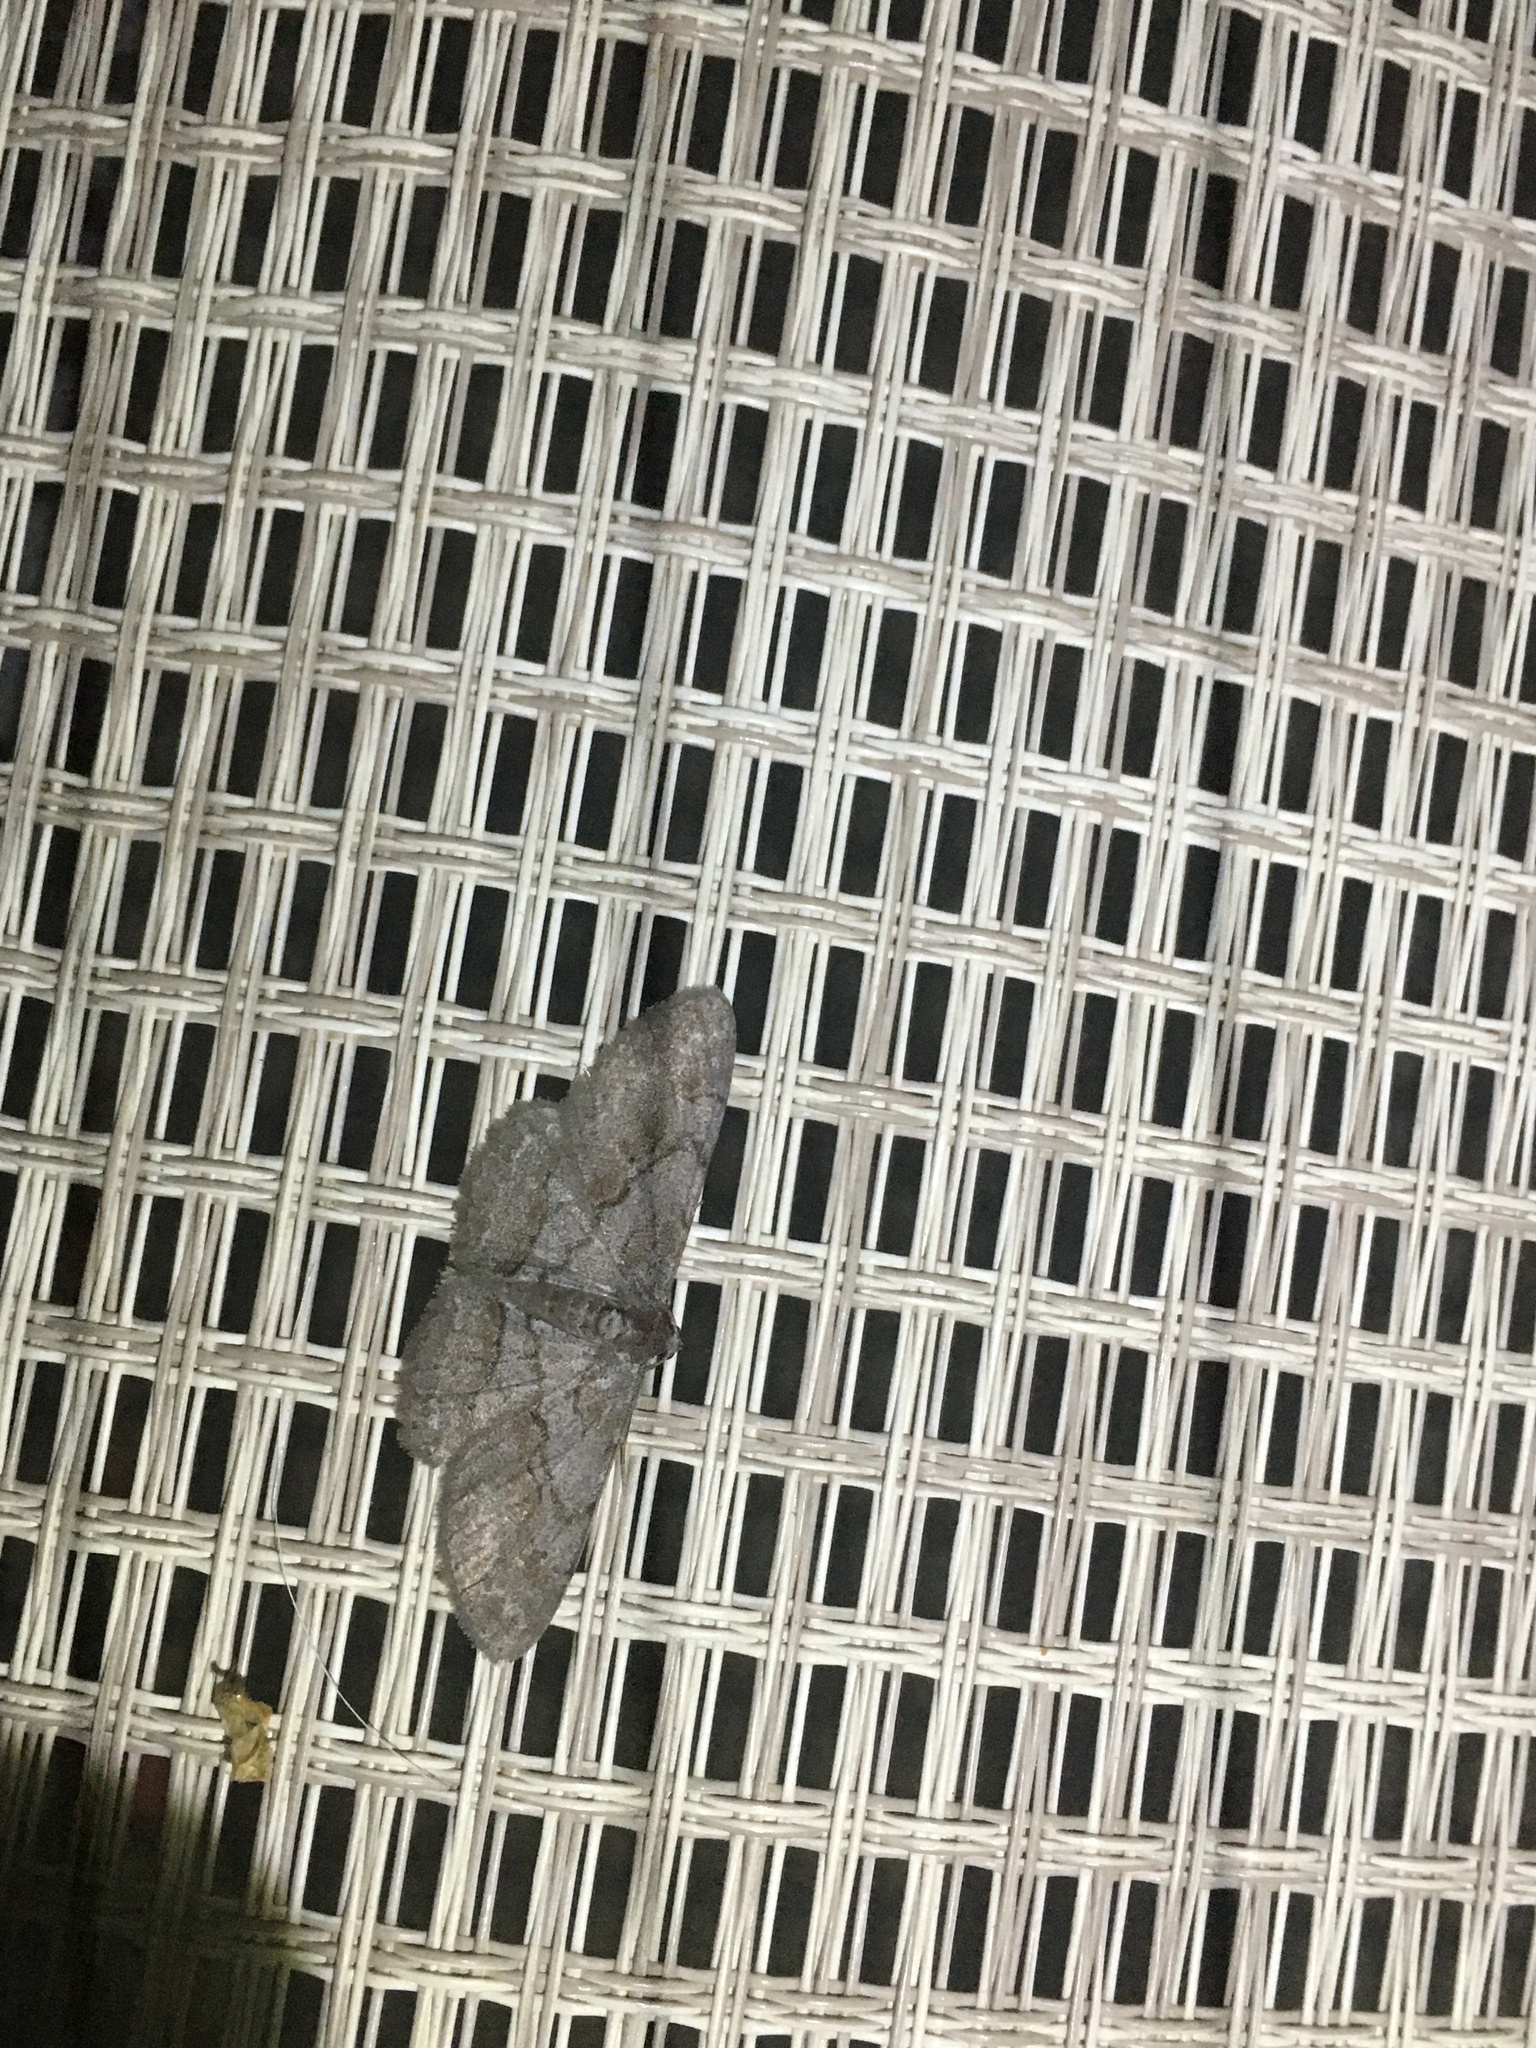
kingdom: Animalia
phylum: Arthropoda
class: Insecta
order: Lepidoptera
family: Geometridae
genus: Iridopsis
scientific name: Iridopsis vellivolata
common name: Large purplish gray
